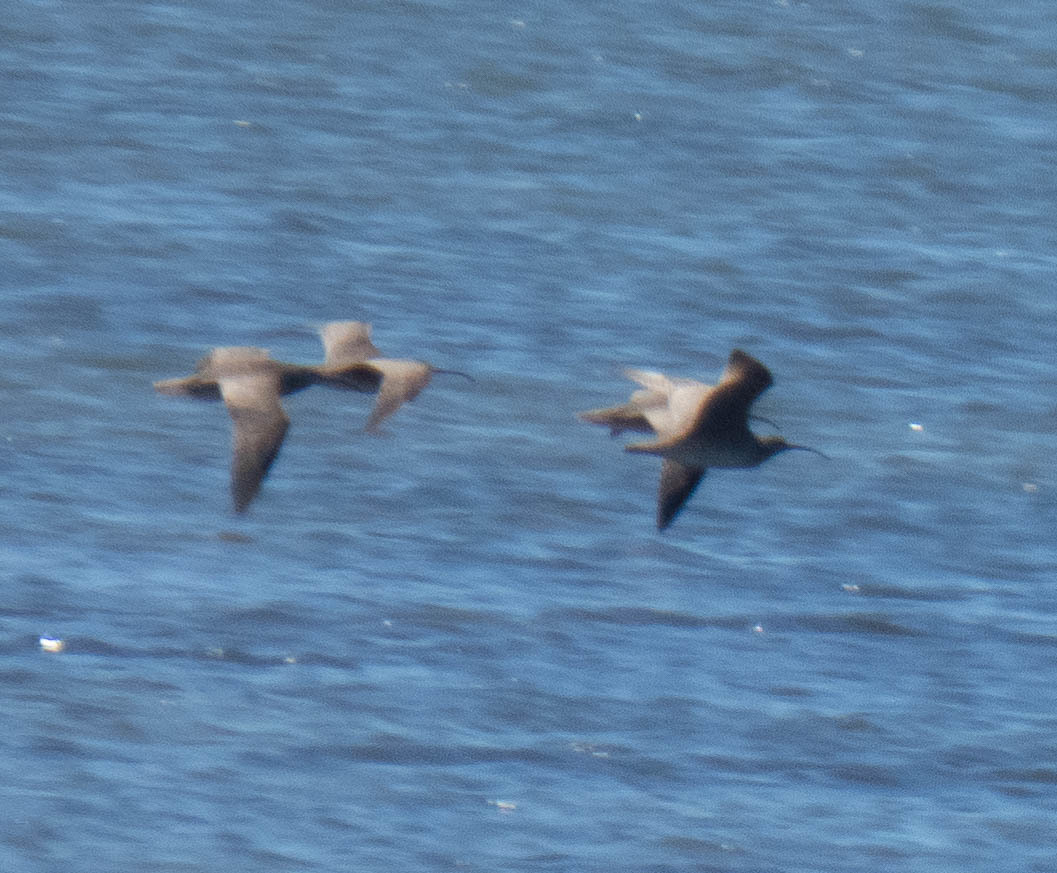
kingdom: Animalia
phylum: Chordata
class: Aves
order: Charadriiformes
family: Scolopacidae
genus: Numenius
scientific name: Numenius phaeopus
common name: Whimbrel
